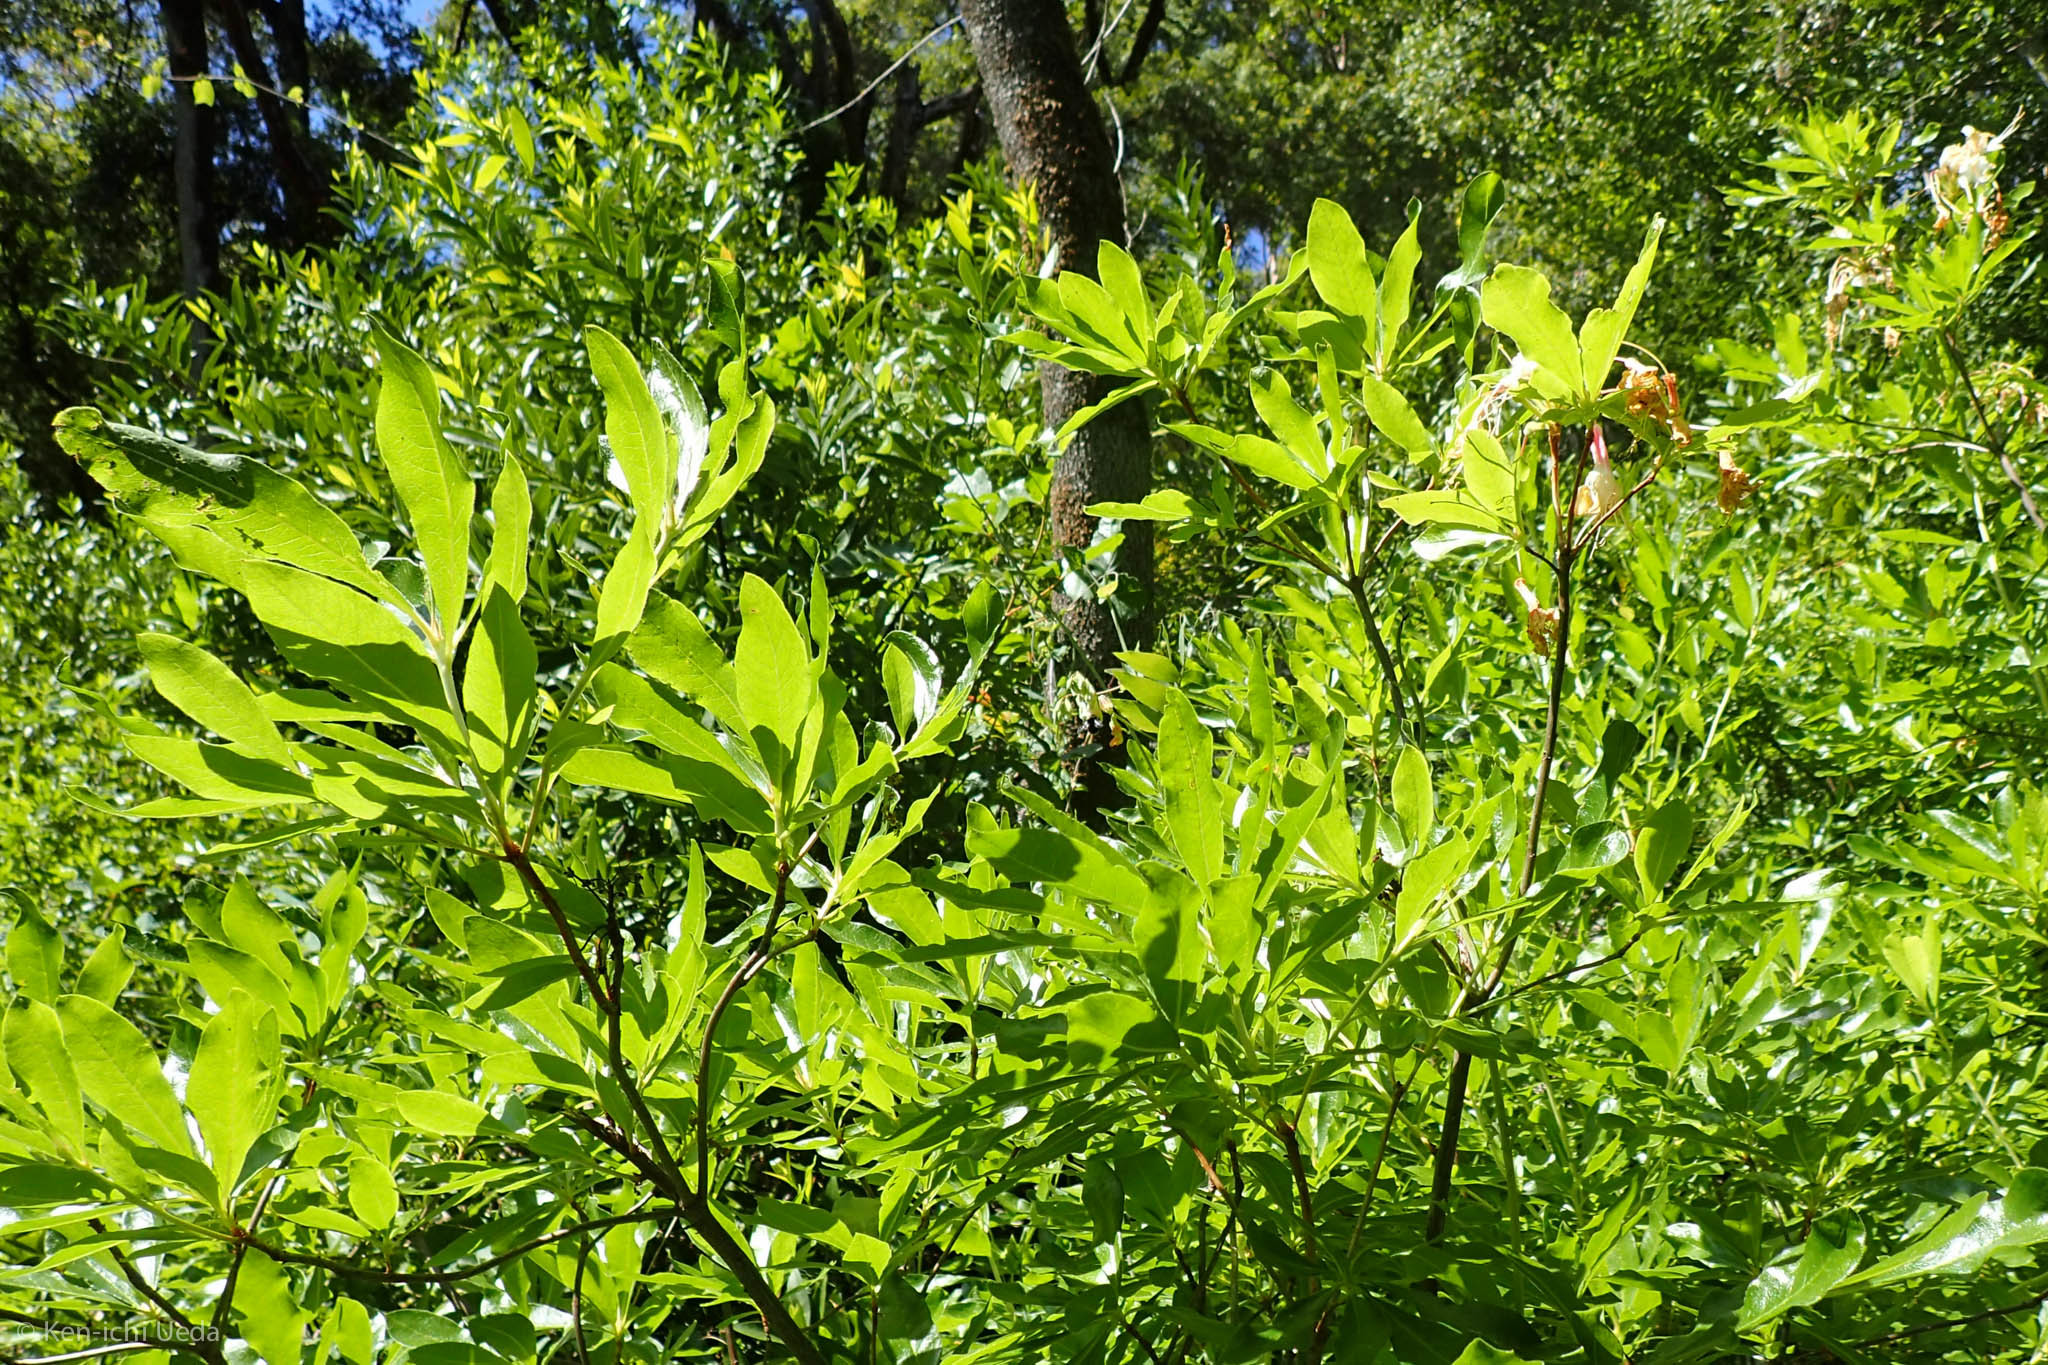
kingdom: Plantae
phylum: Tracheophyta
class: Magnoliopsida
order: Ericales
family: Ericaceae
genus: Rhododendron
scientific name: Rhododendron occidentale
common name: Western azalea
